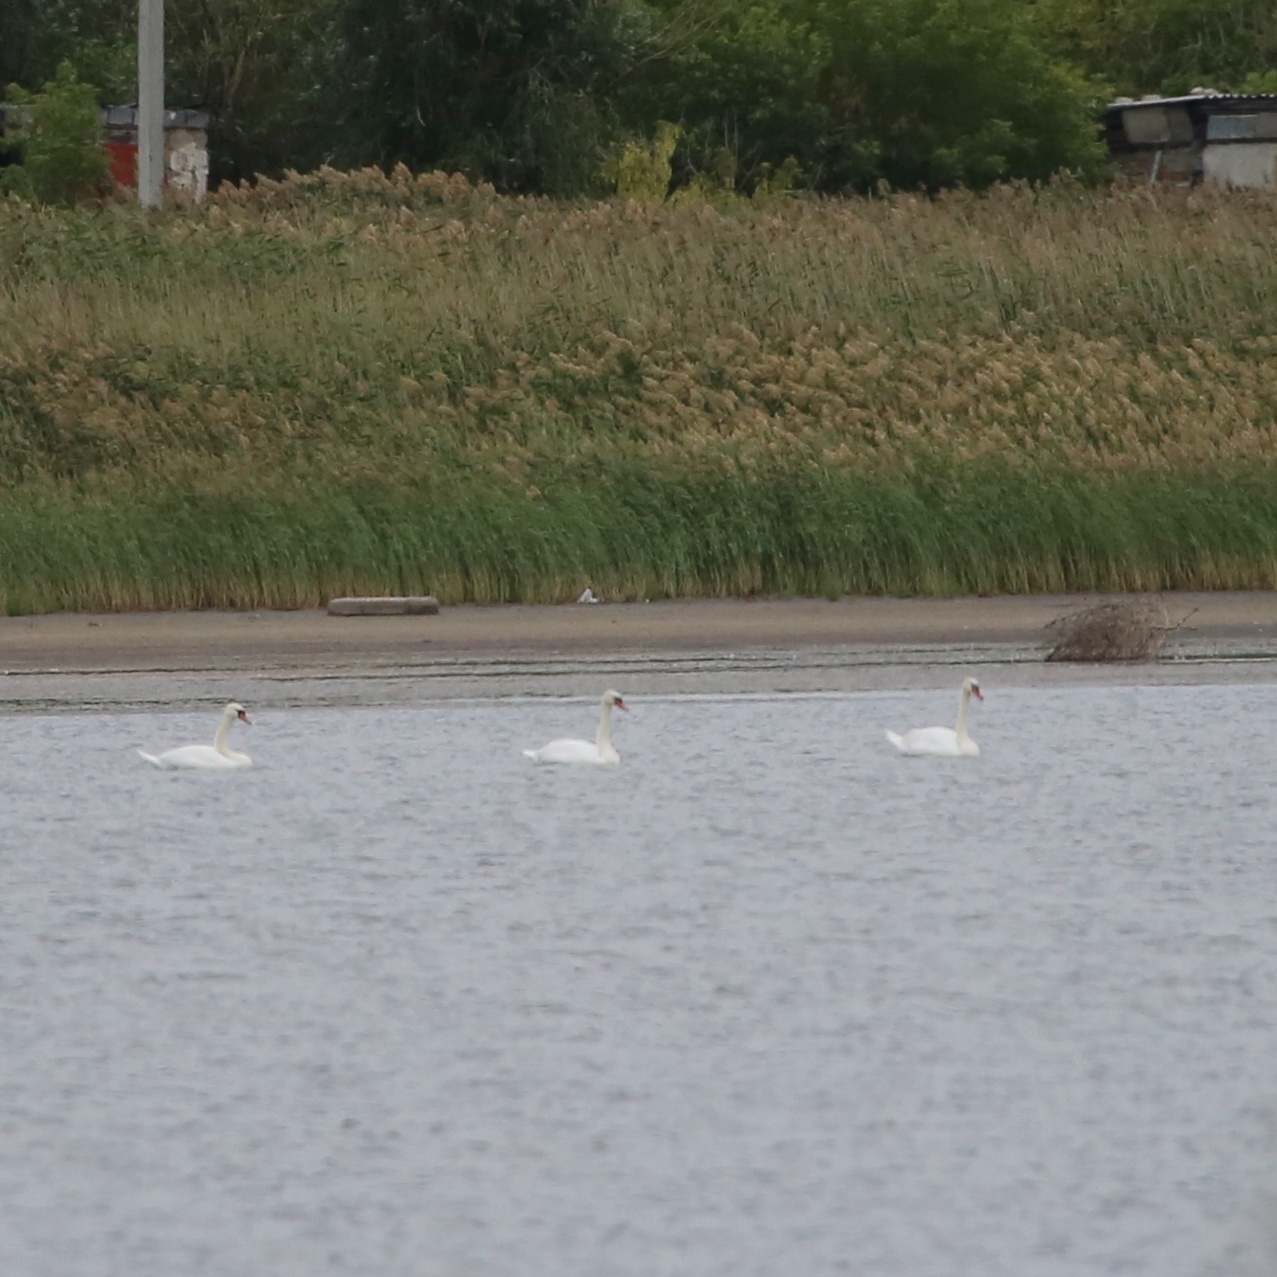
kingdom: Animalia
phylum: Chordata
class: Aves
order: Anseriformes
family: Anatidae
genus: Cygnus
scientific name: Cygnus olor
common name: Mute swan
